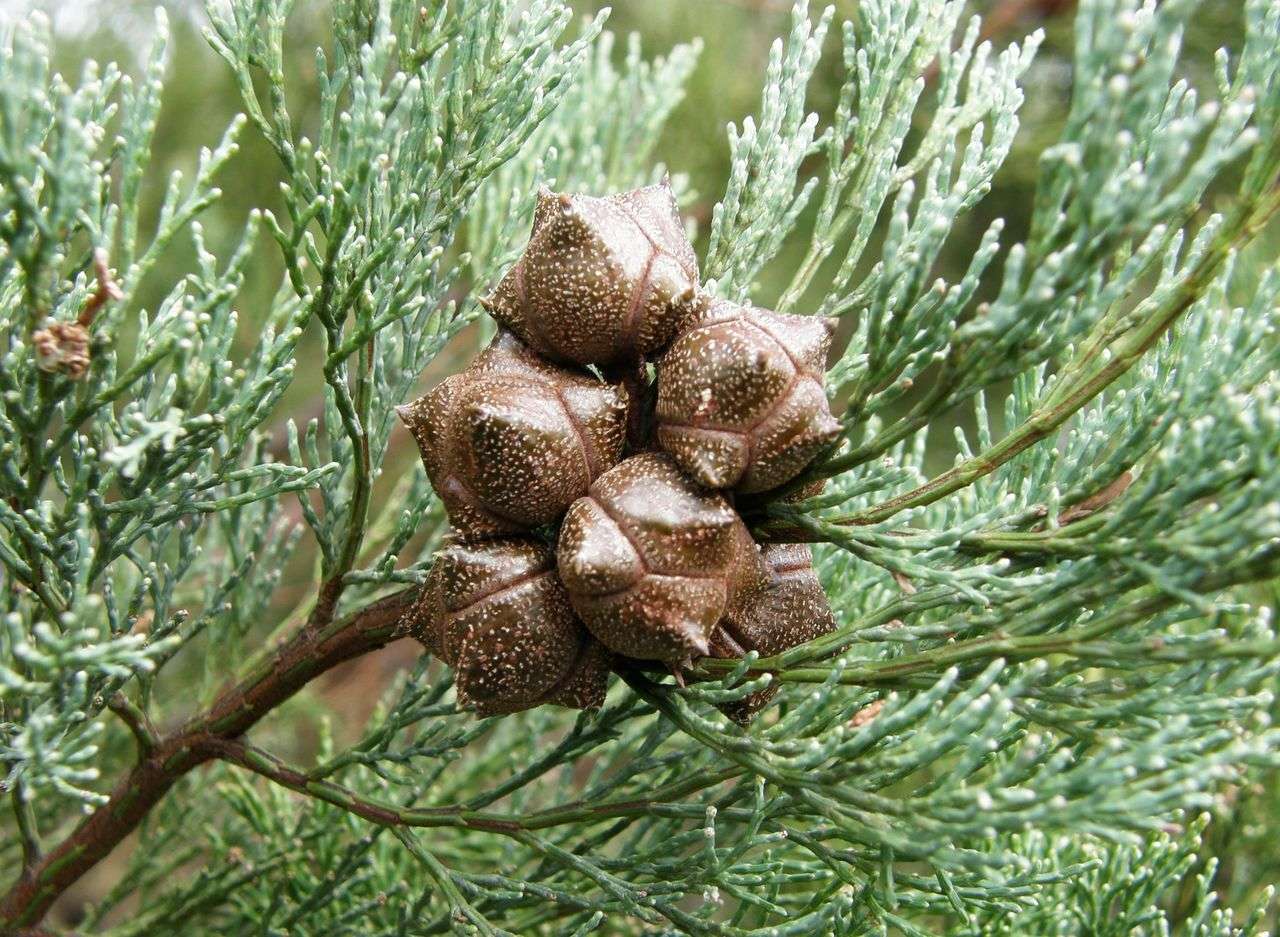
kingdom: Plantae
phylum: Tracheophyta
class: Pinopsida
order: Pinales
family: Cupressaceae
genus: Callitris
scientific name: Callitris rhomboidea
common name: Illawara mountain pine
